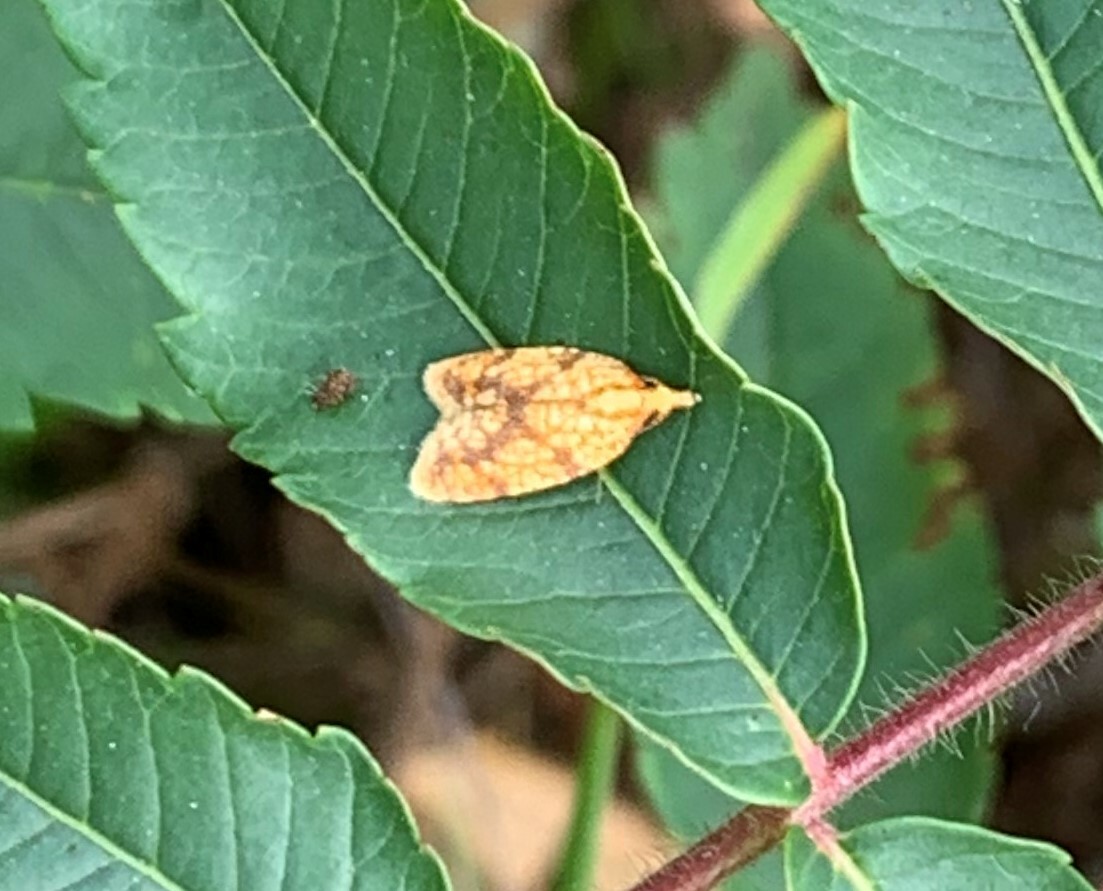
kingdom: Animalia
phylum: Arthropoda
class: Insecta
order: Lepidoptera
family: Tortricidae
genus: Sparganothis
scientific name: Sparganothis sulfureana
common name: Sparganothis fruitworm moth
